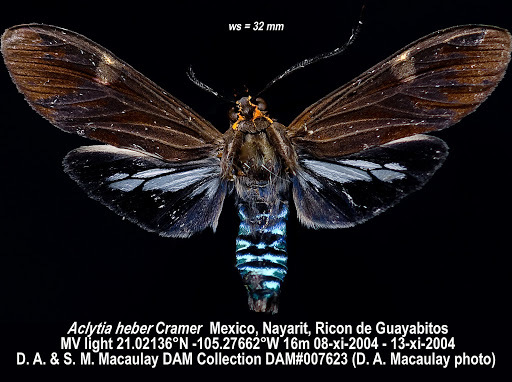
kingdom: Animalia
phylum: Arthropoda
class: Insecta
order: Lepidoptera
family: Erebidae
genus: Aclytia
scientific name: Aclytia heber
